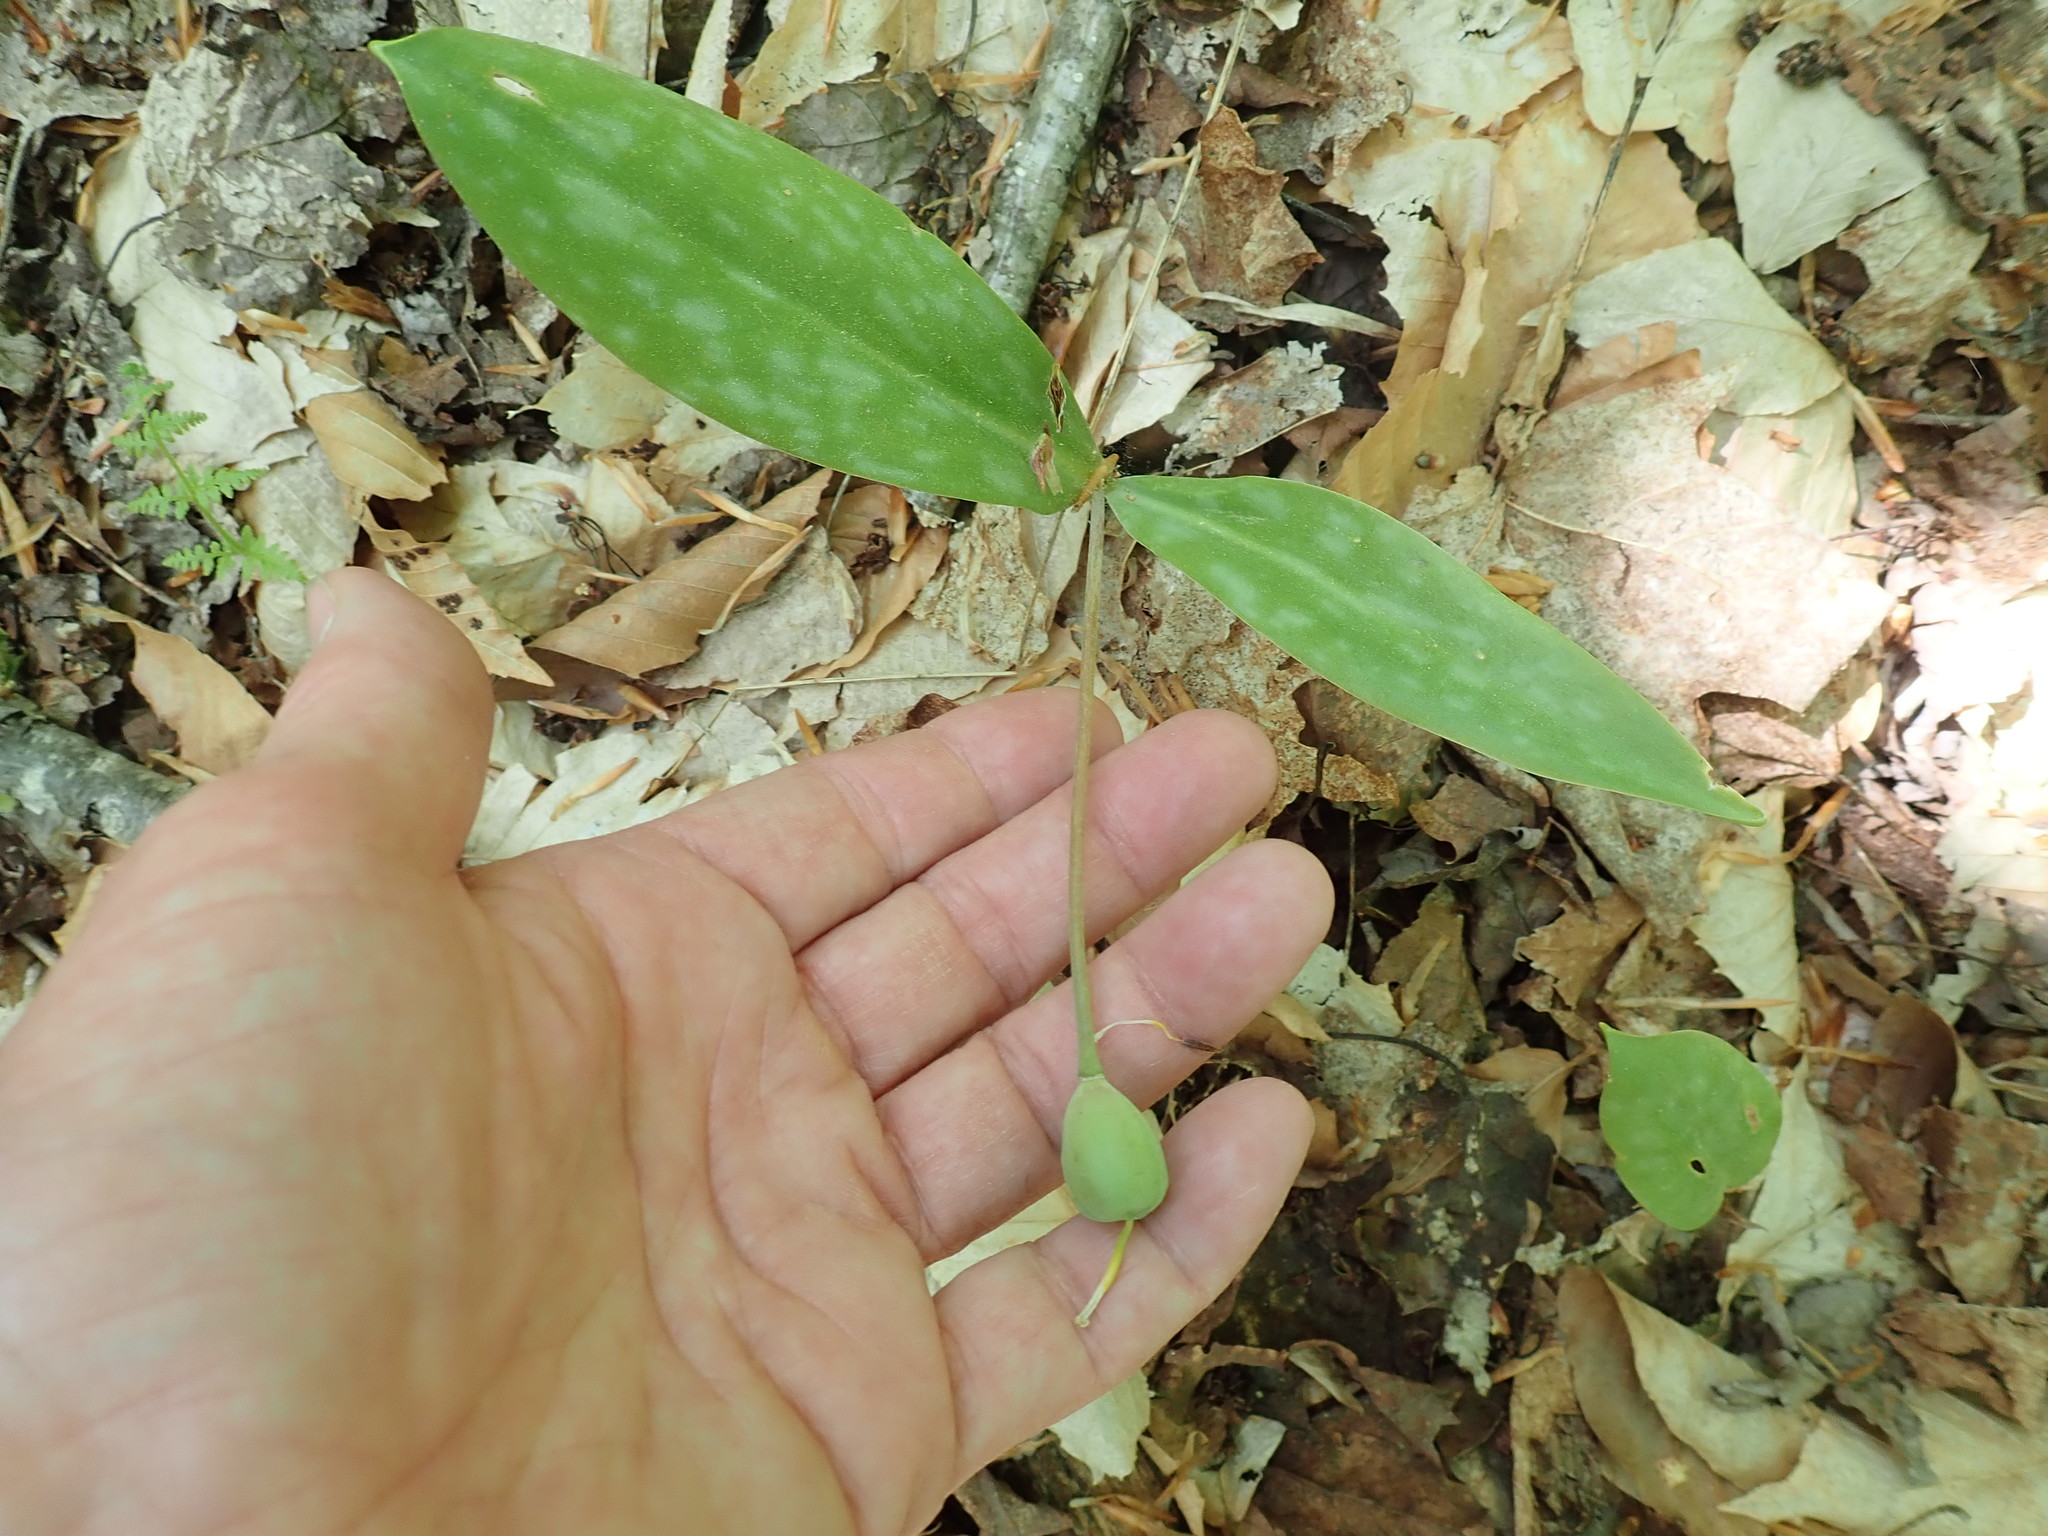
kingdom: Plantae
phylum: Tracheophyta
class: Liliopsida
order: Liliales
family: Liliaceae
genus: Erythronium
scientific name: Erythronium americanum
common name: Yellow adder's-tongue
